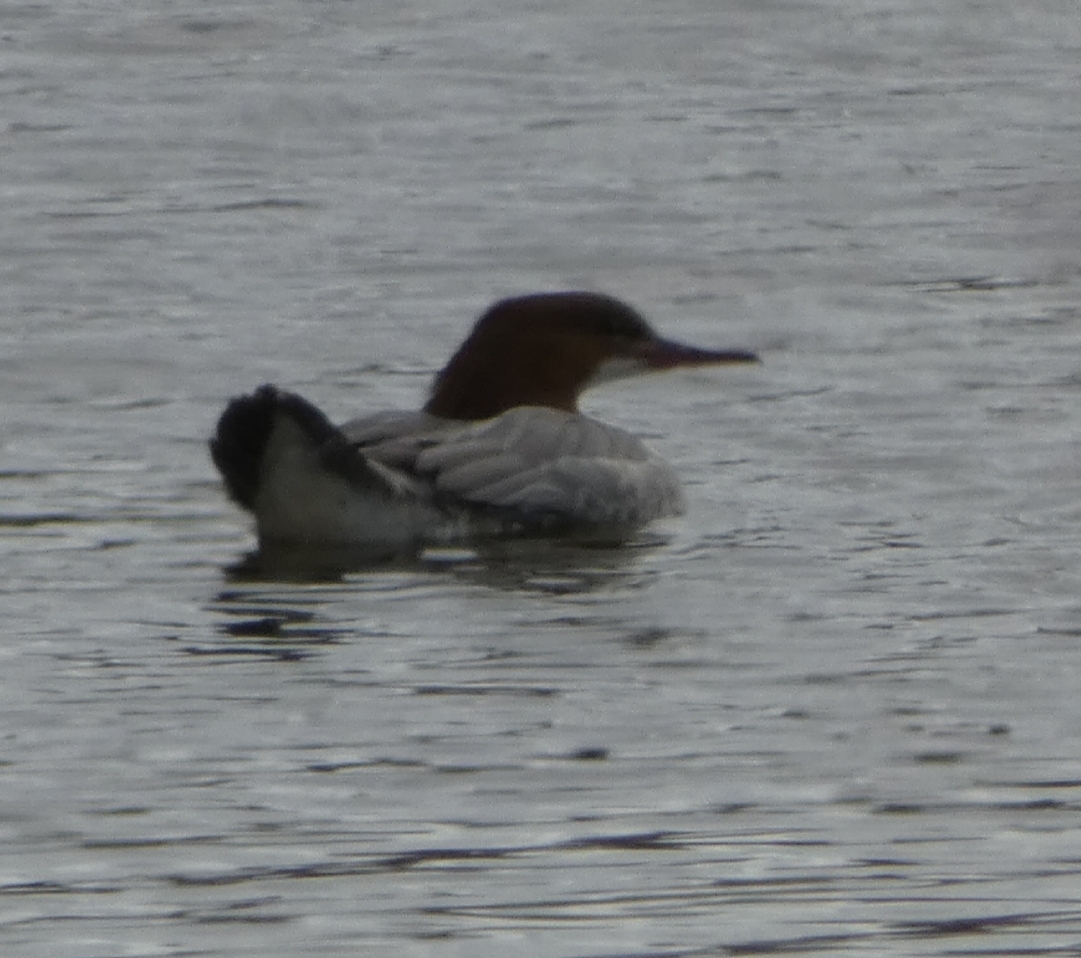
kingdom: Animalia
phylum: Chordata
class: Aves
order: Anseriformes
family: Anatidae
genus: Mergus
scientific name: Mergus merganser
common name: Common merganser
